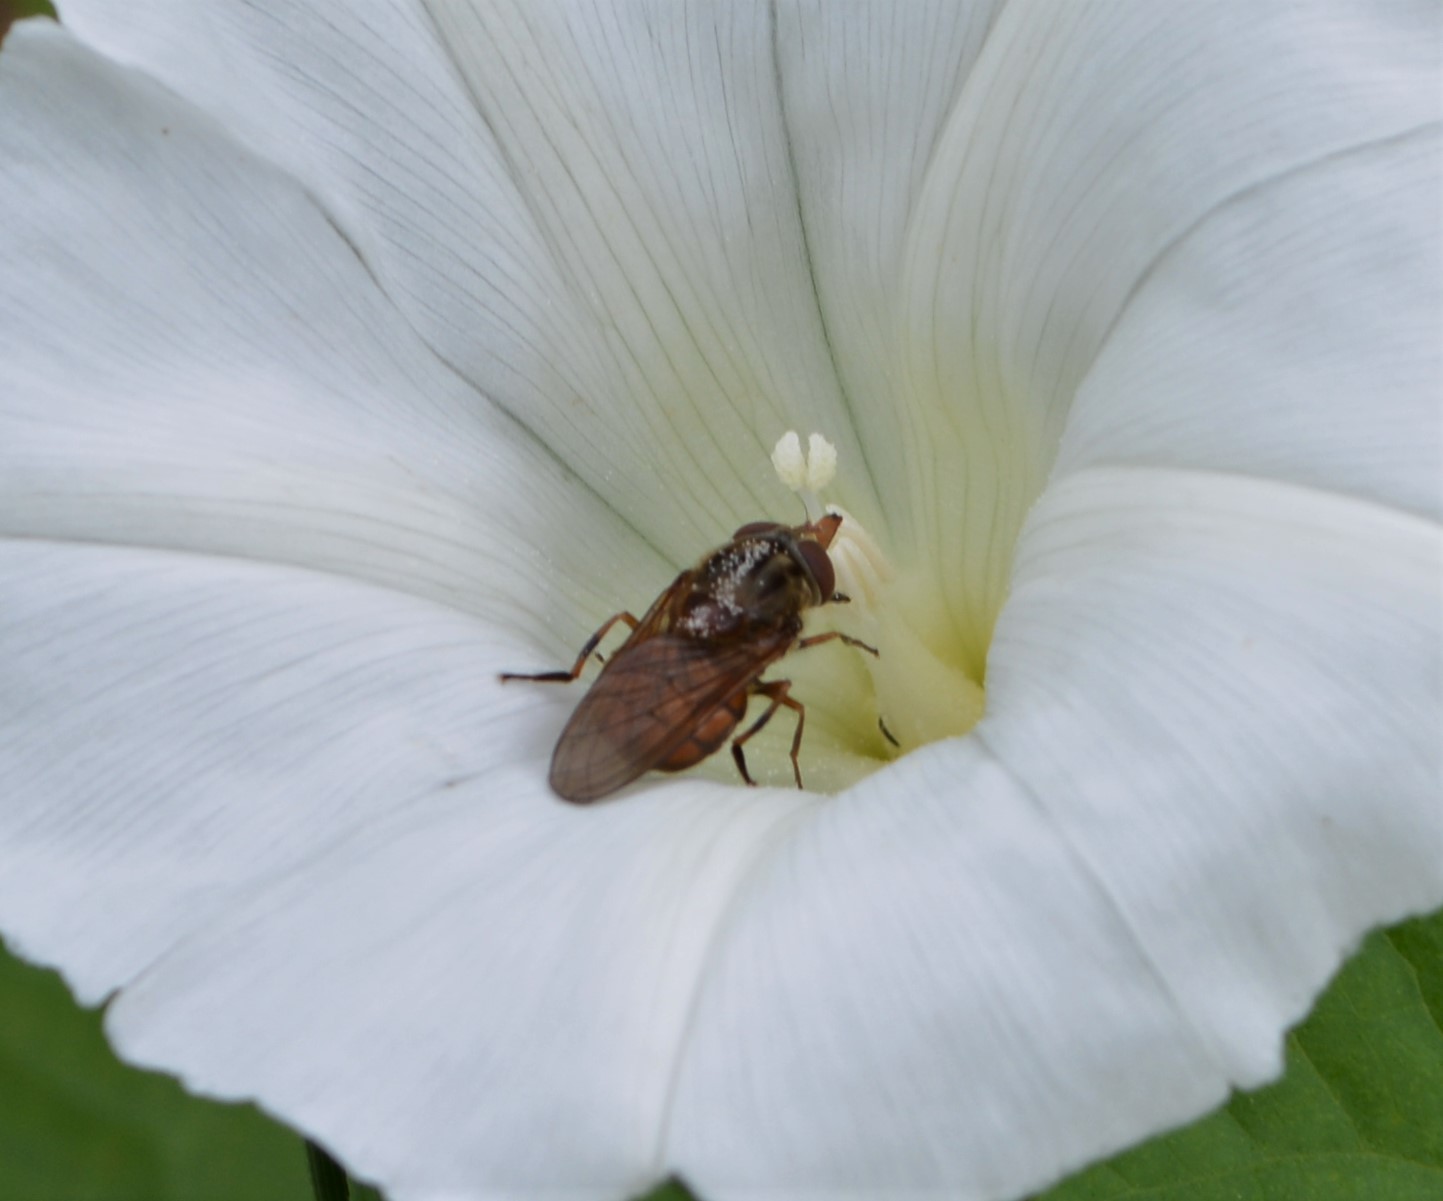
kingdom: Animalia
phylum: Arthropoda
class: Insecta
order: Diptera
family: Syrphidae
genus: Rhingia
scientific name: Rhingia campestris
